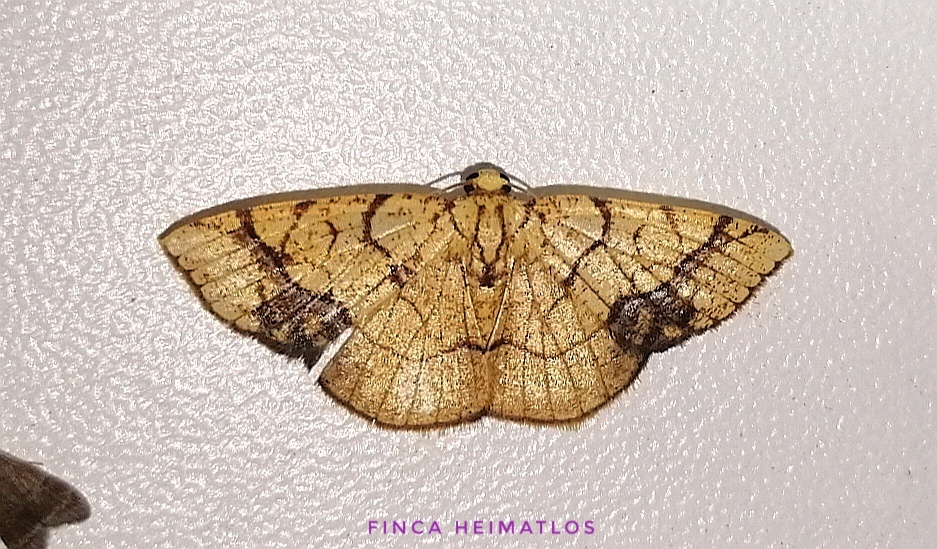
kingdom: Animalia
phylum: Arthropoda
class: Insecta
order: Lepidoptera
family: Geometridae
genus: Nematocampa
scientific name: Nematocampa straminea
